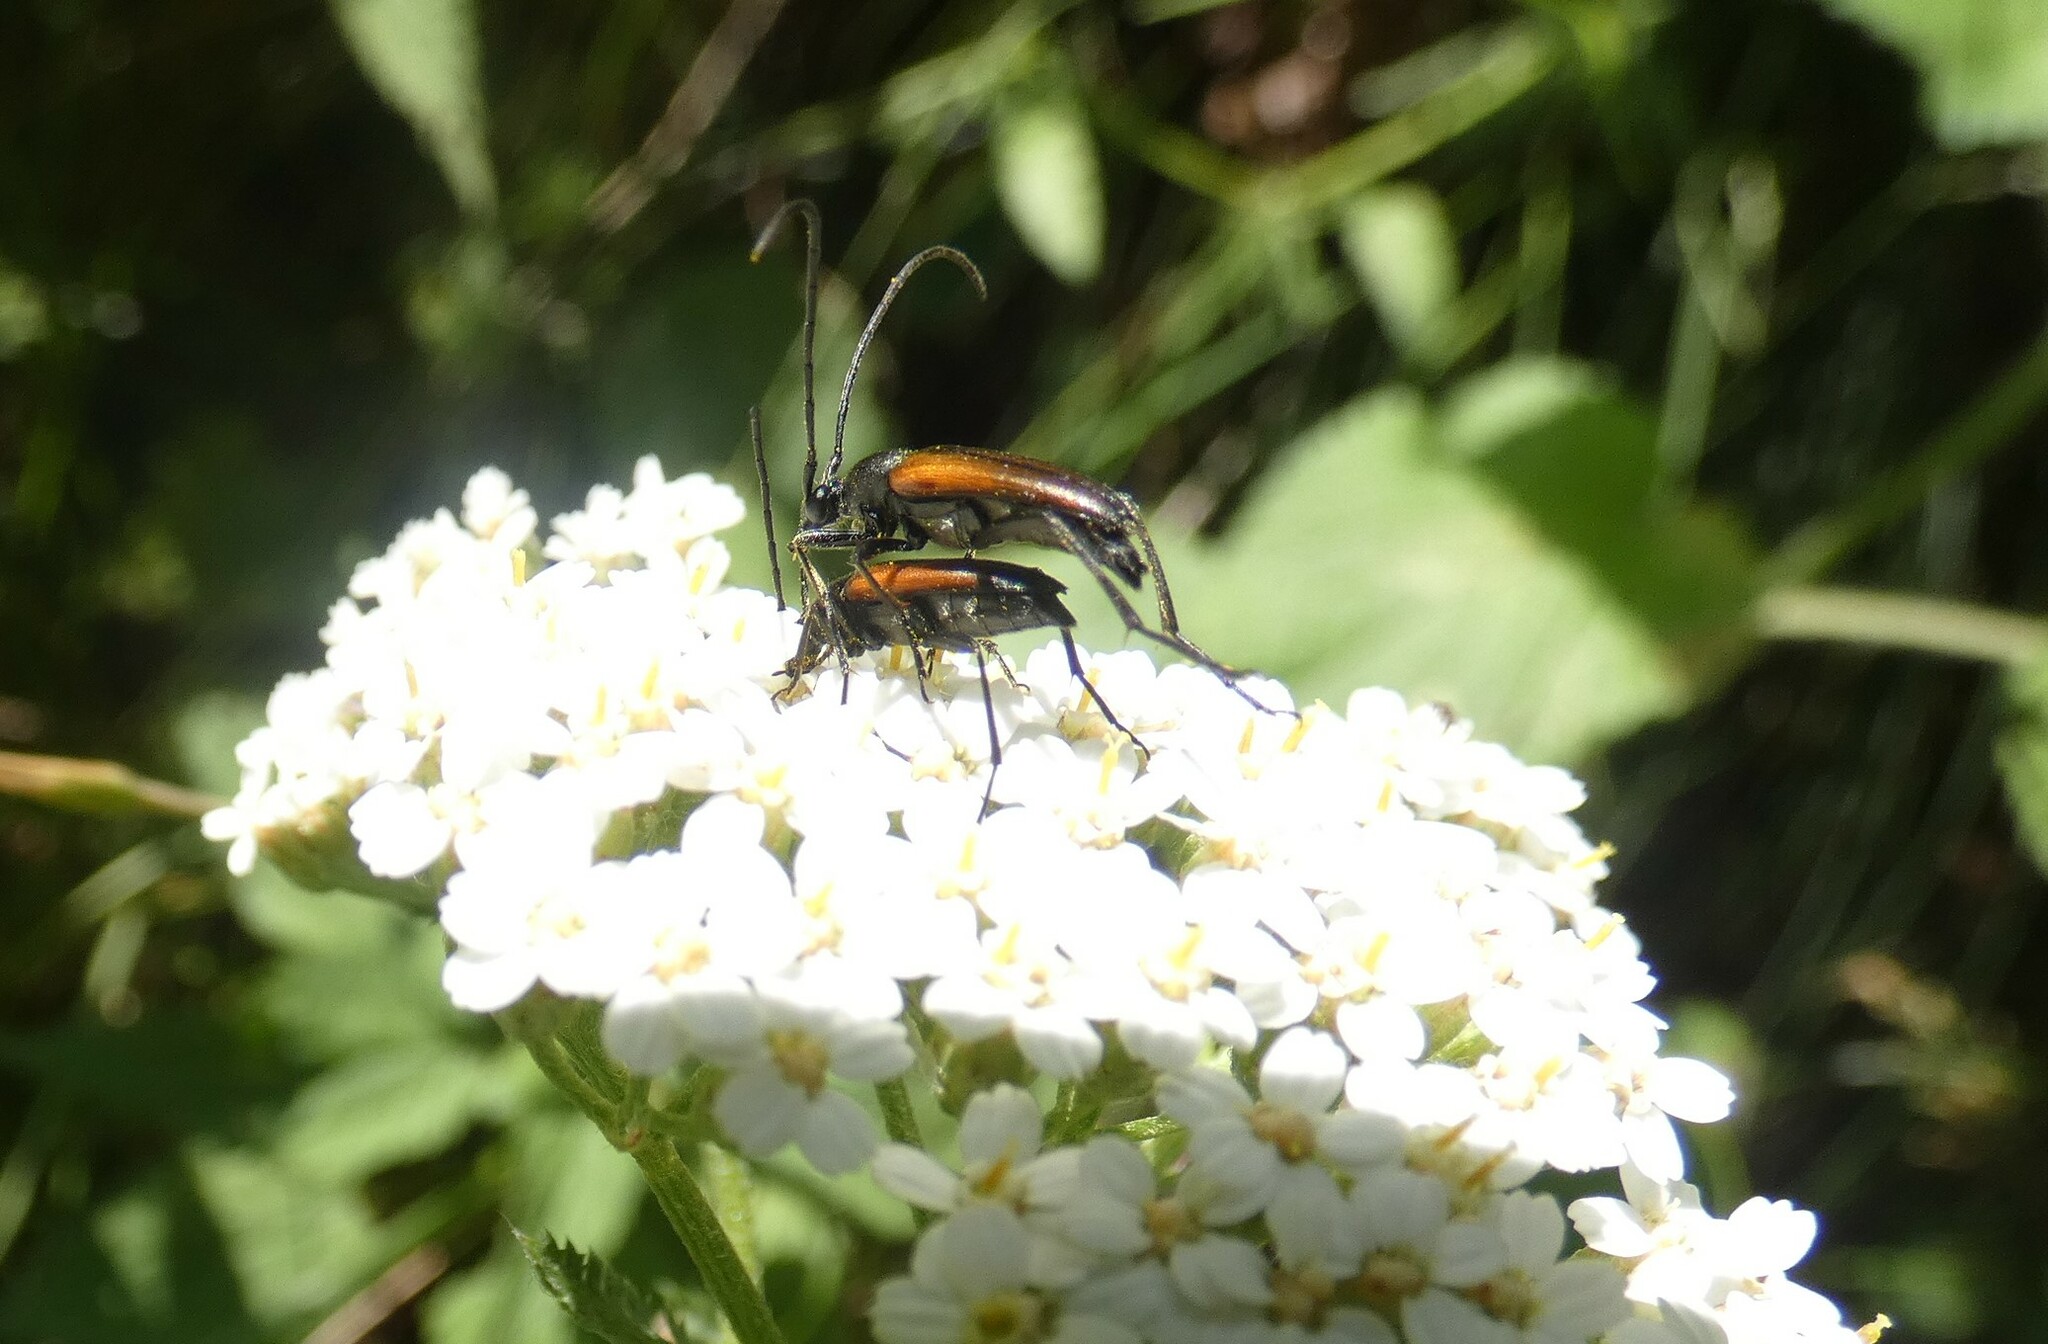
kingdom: Animalia
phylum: Arthropoda
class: Insecta
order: Coleoptera
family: Cerambycidae
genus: Stenurella
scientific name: Stenurella melanura
